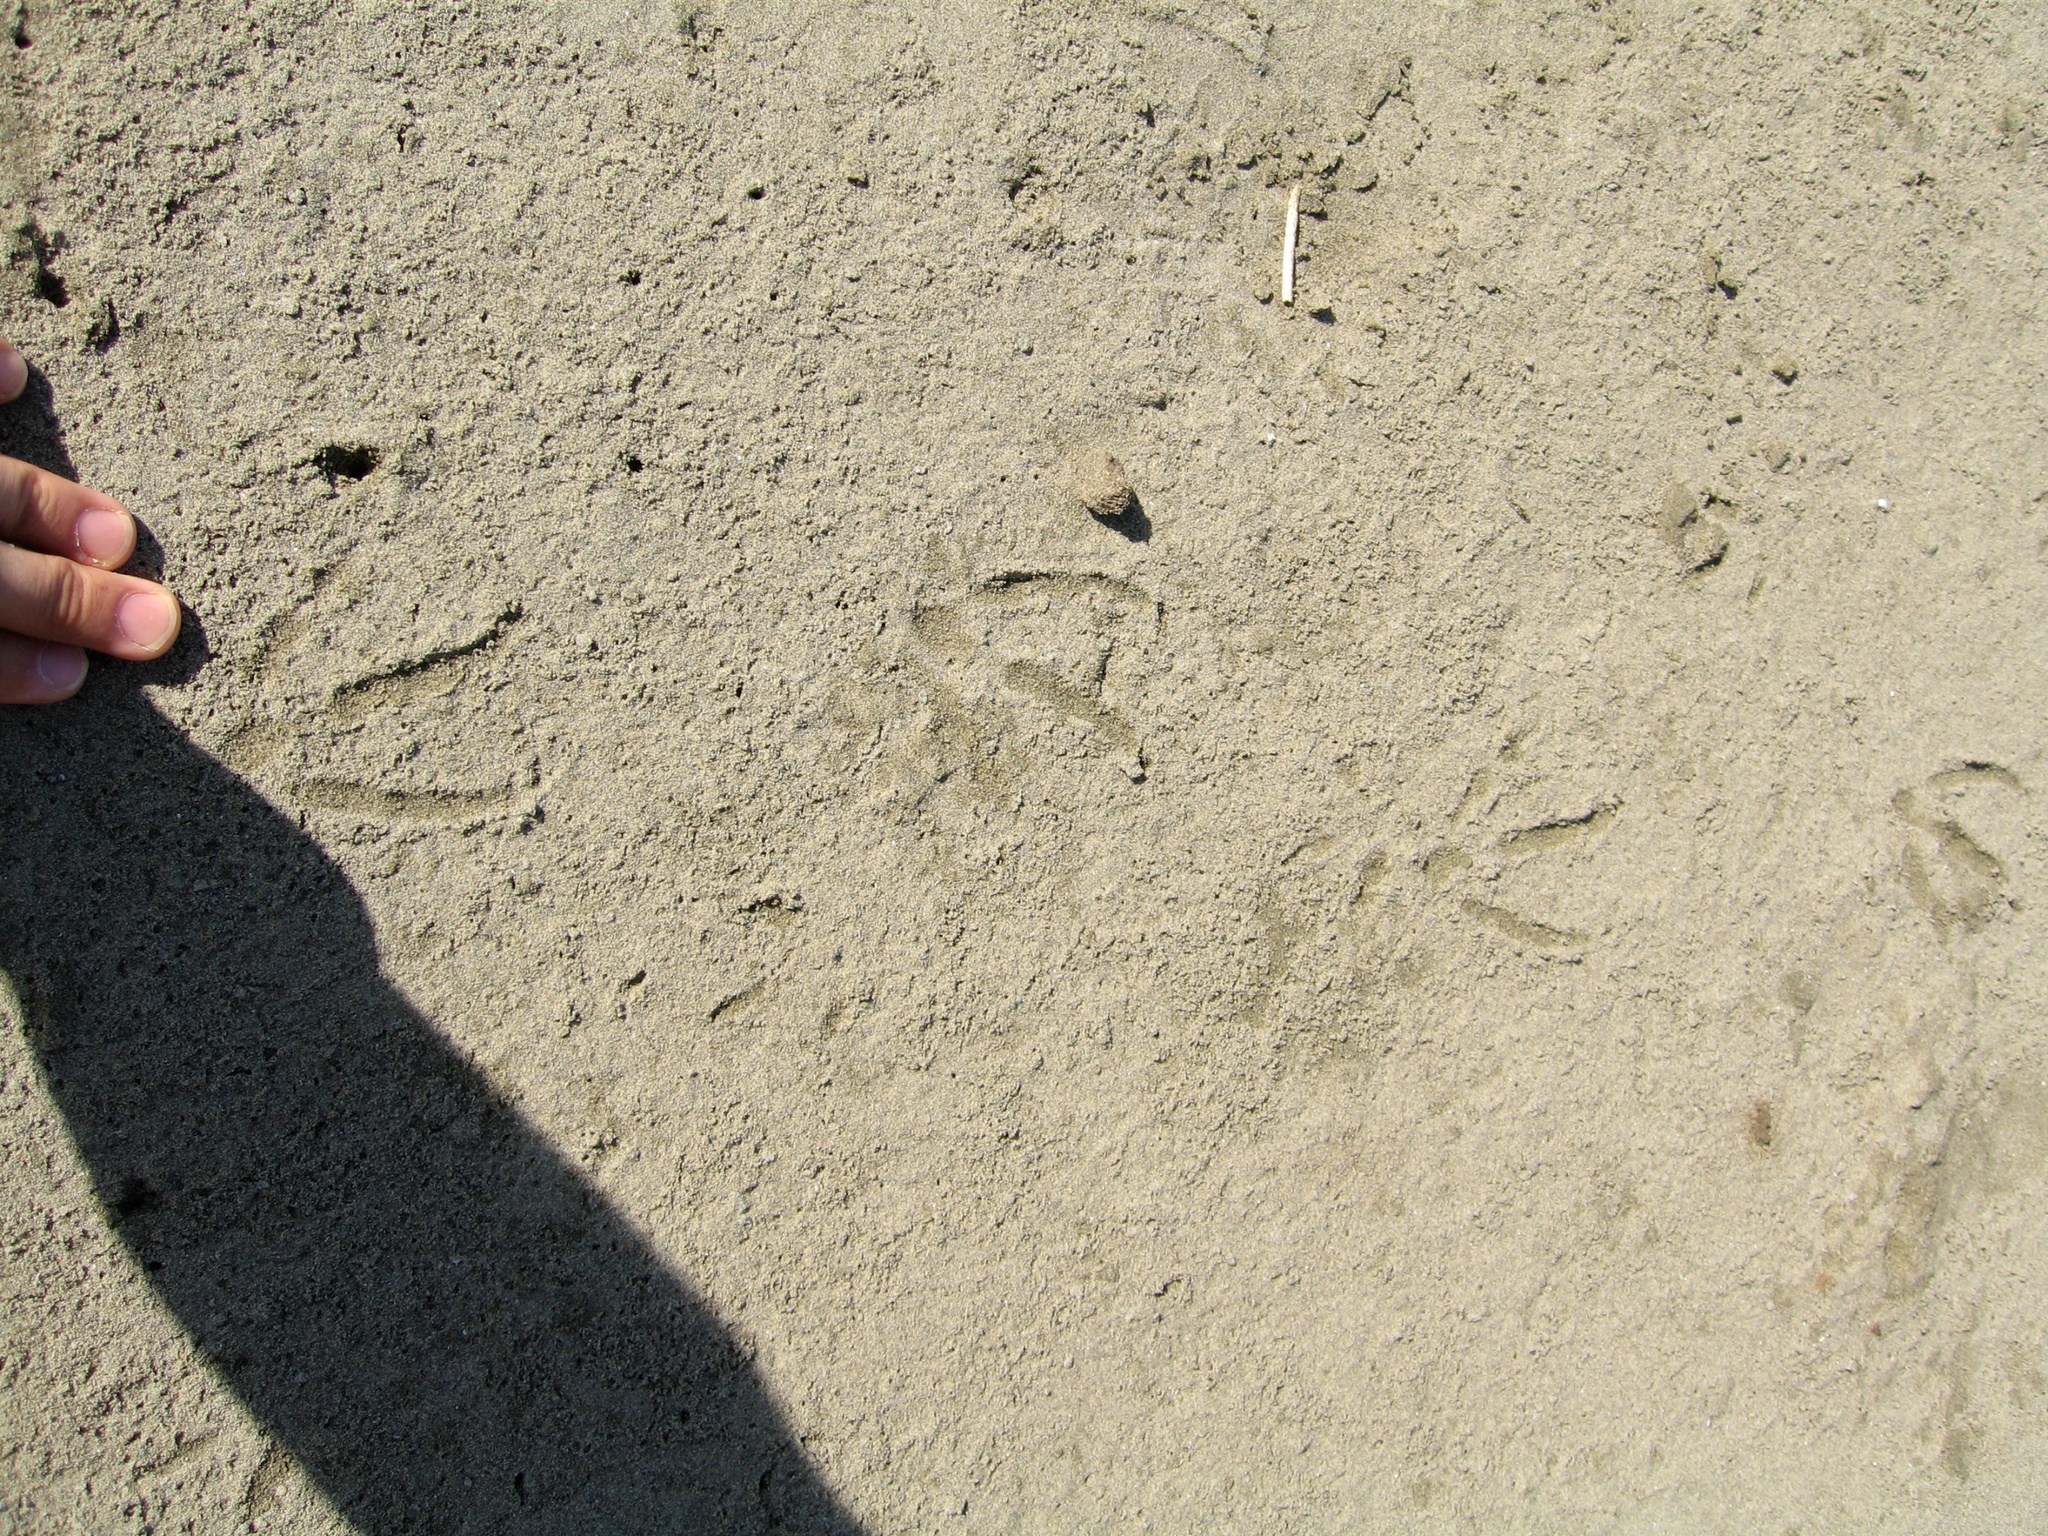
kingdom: Animalia
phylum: Chordata
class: Aves
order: Sphenisciformes
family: Spheniscidae
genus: Eudyptula
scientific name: Eudyptula minor
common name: Little penguin
